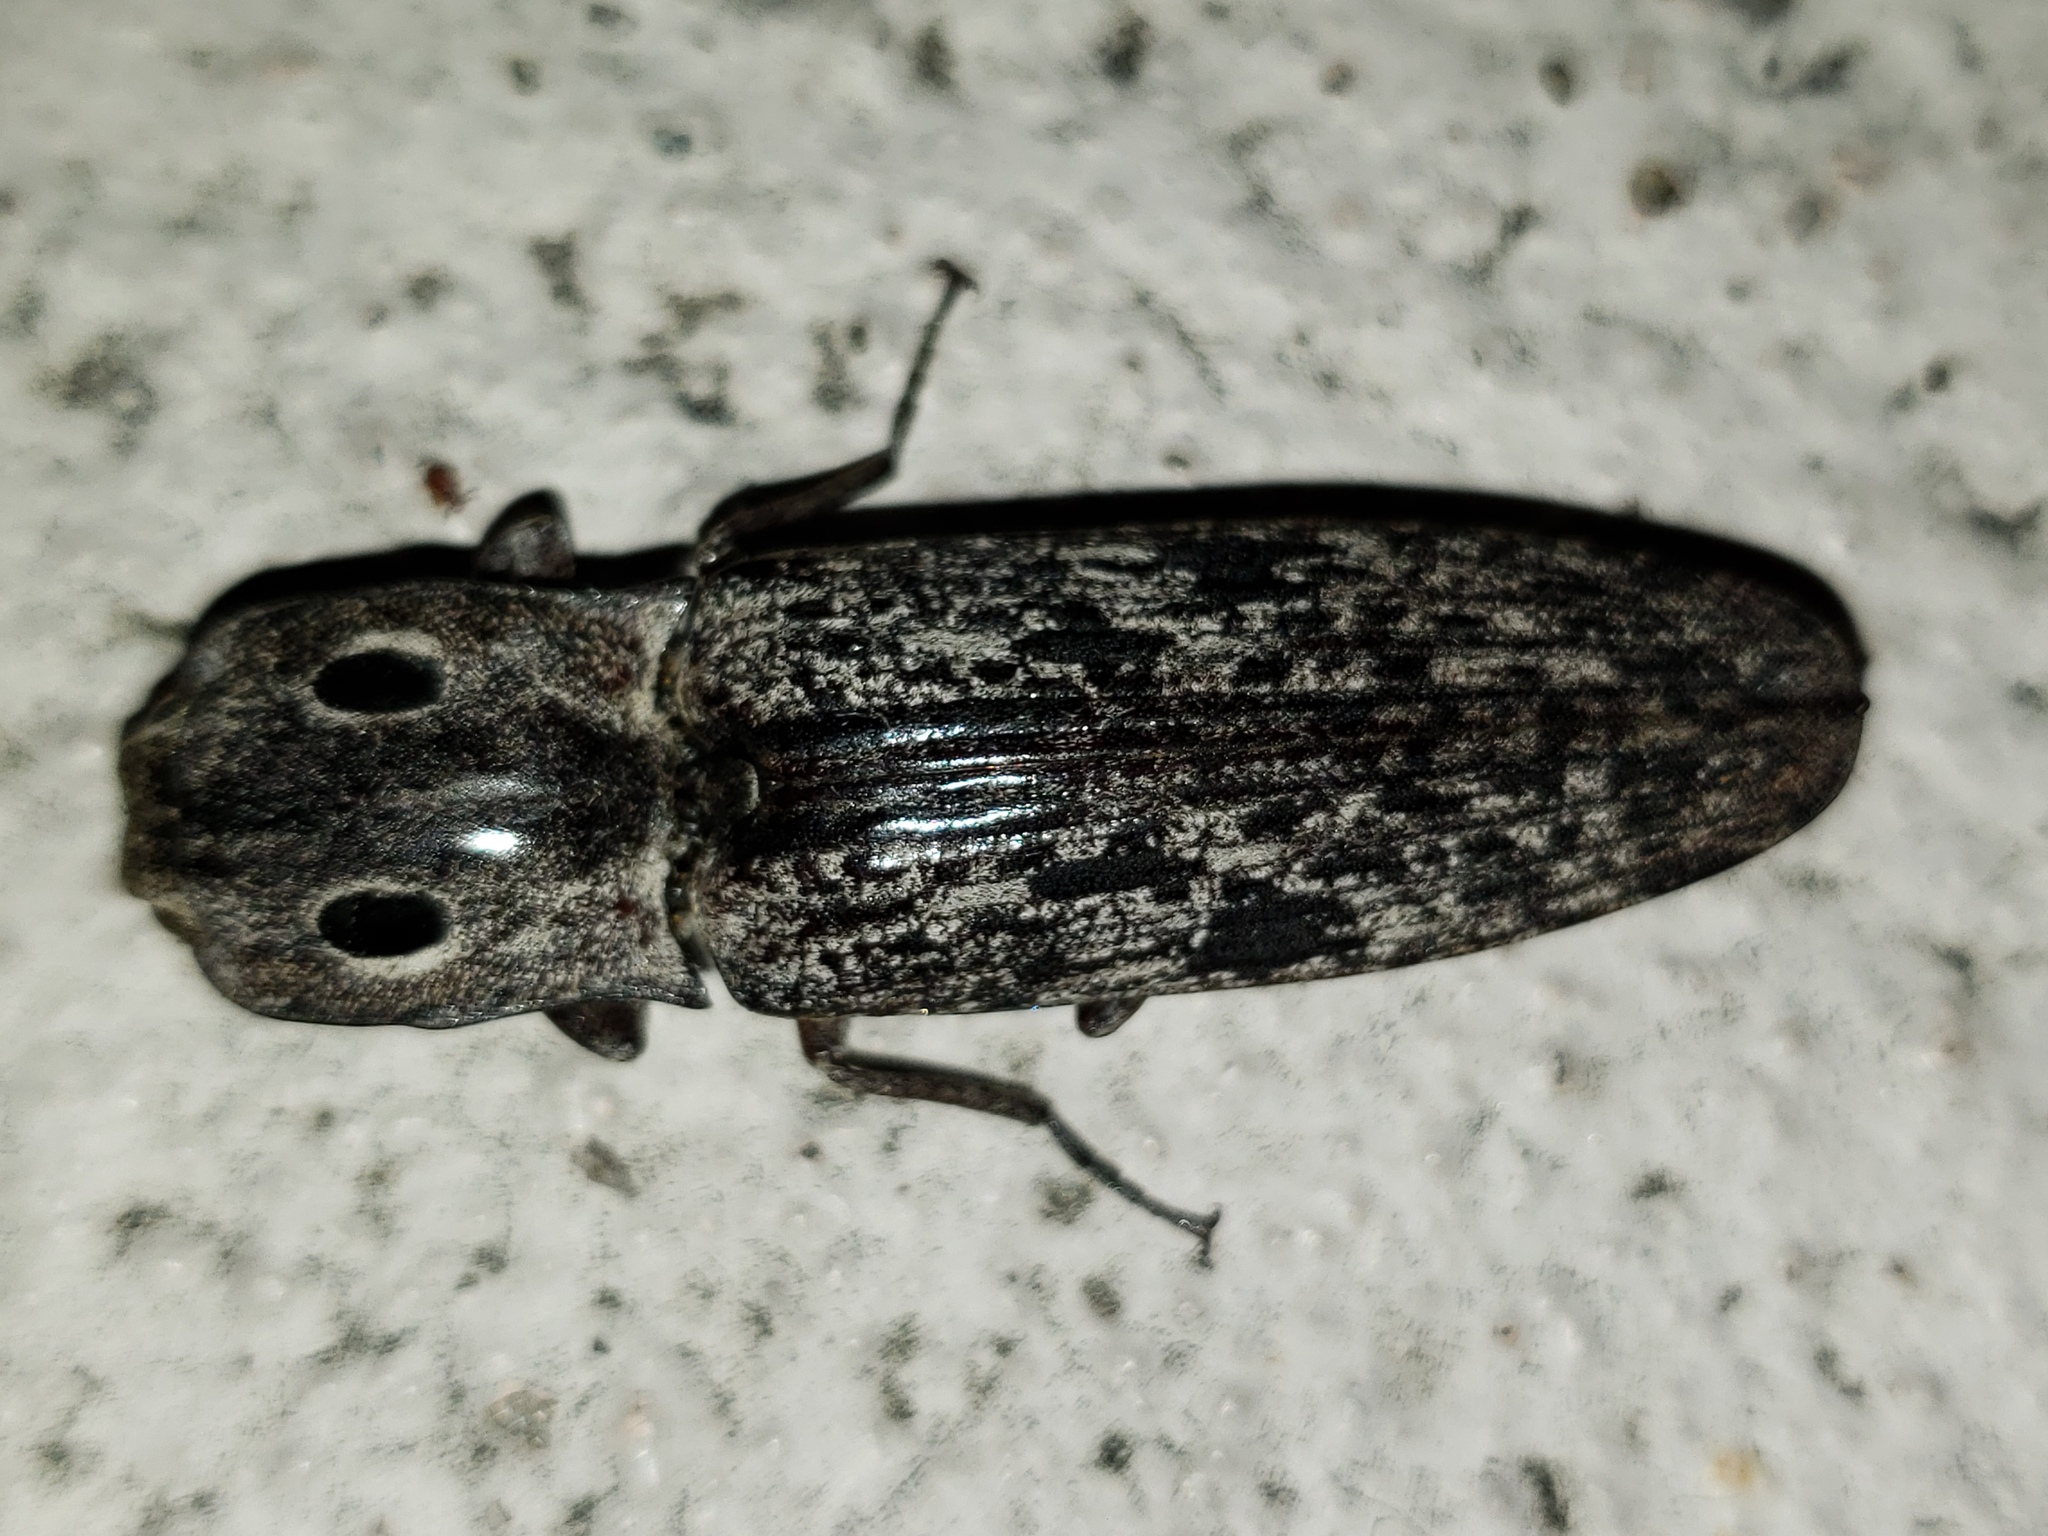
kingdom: Animalia
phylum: Arthropoda
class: Insecta
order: Coleoptera
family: Elateridae
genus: Alaus
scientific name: Alaus myops
